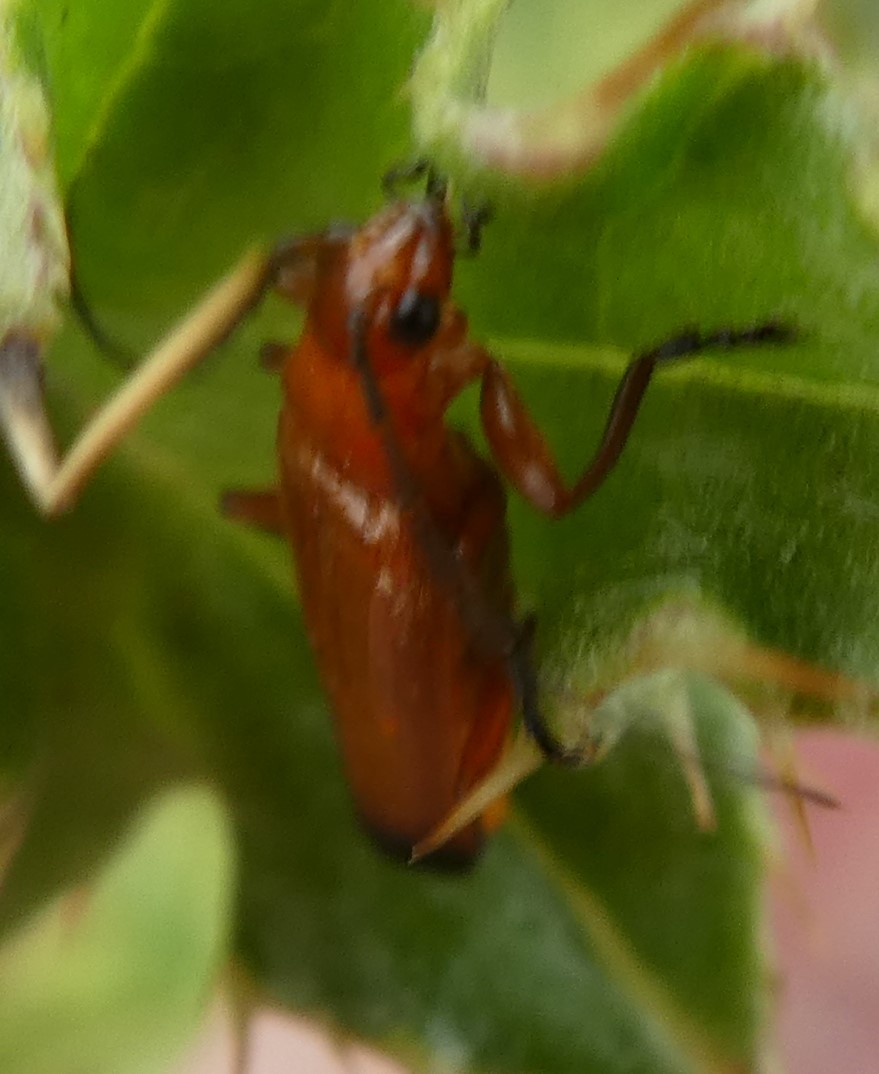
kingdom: Animalia
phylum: Arthropoda
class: Insecta
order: Coleoptera
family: Cantharidae
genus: Rhagonycha
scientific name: Rhagonycha fulva
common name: Common red soldier beetle
